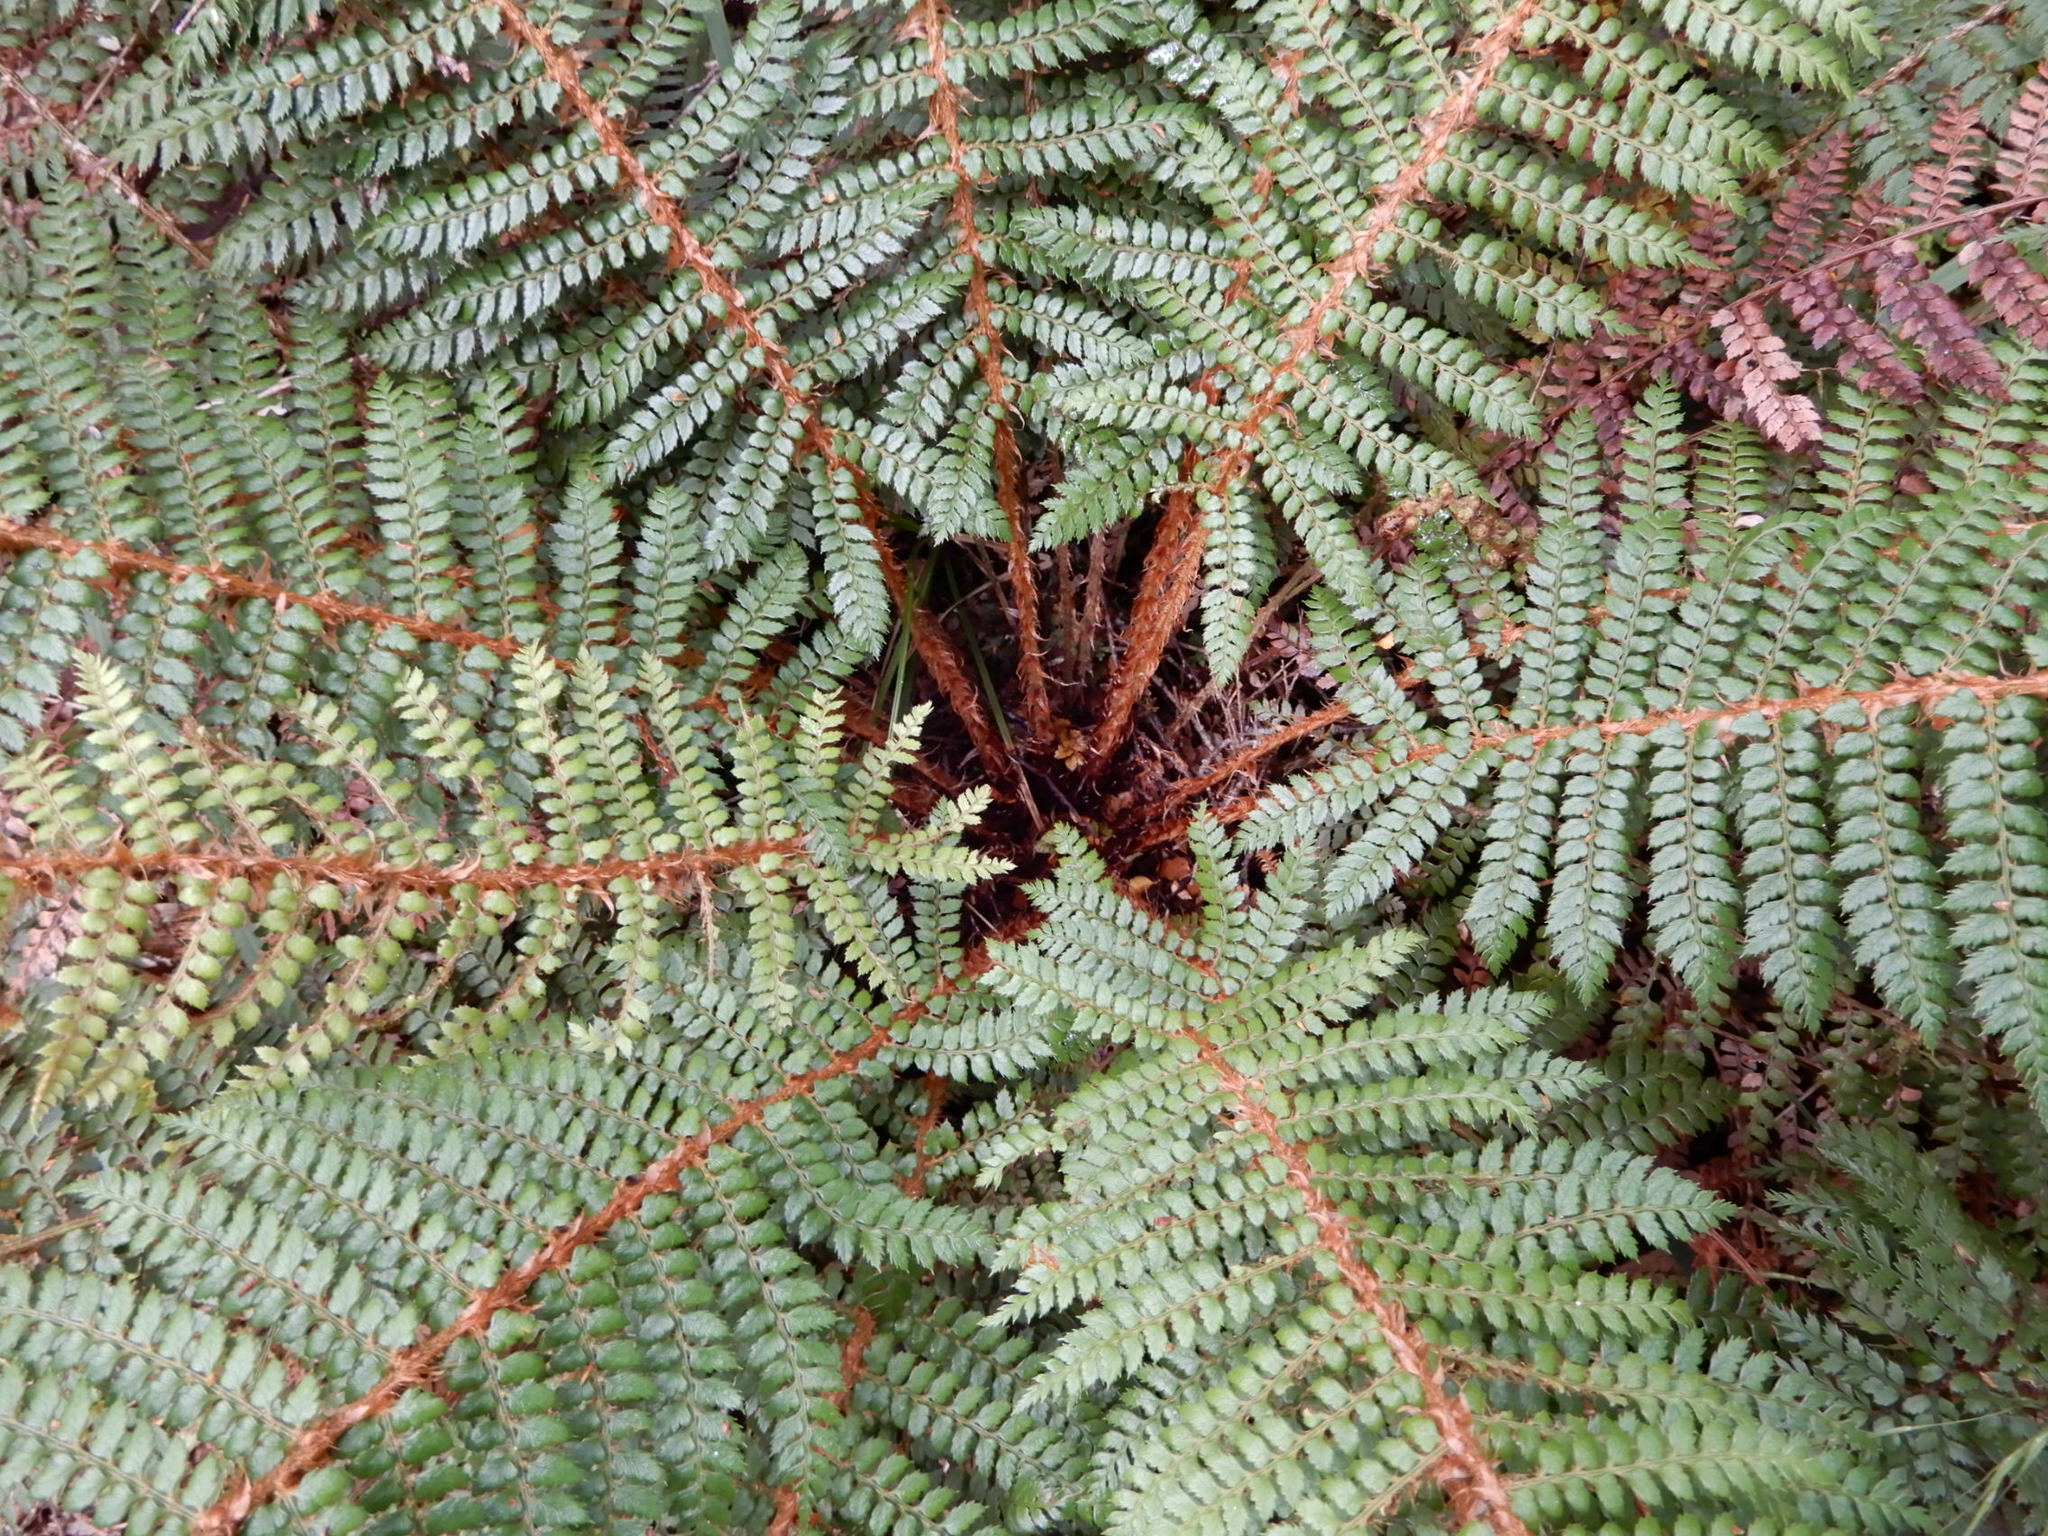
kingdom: Plantae
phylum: Tracheophyta
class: Polypodiopsida
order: Polypodiales
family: Dryopteridaceae
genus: Polystichum
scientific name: Polystichum vestitum
